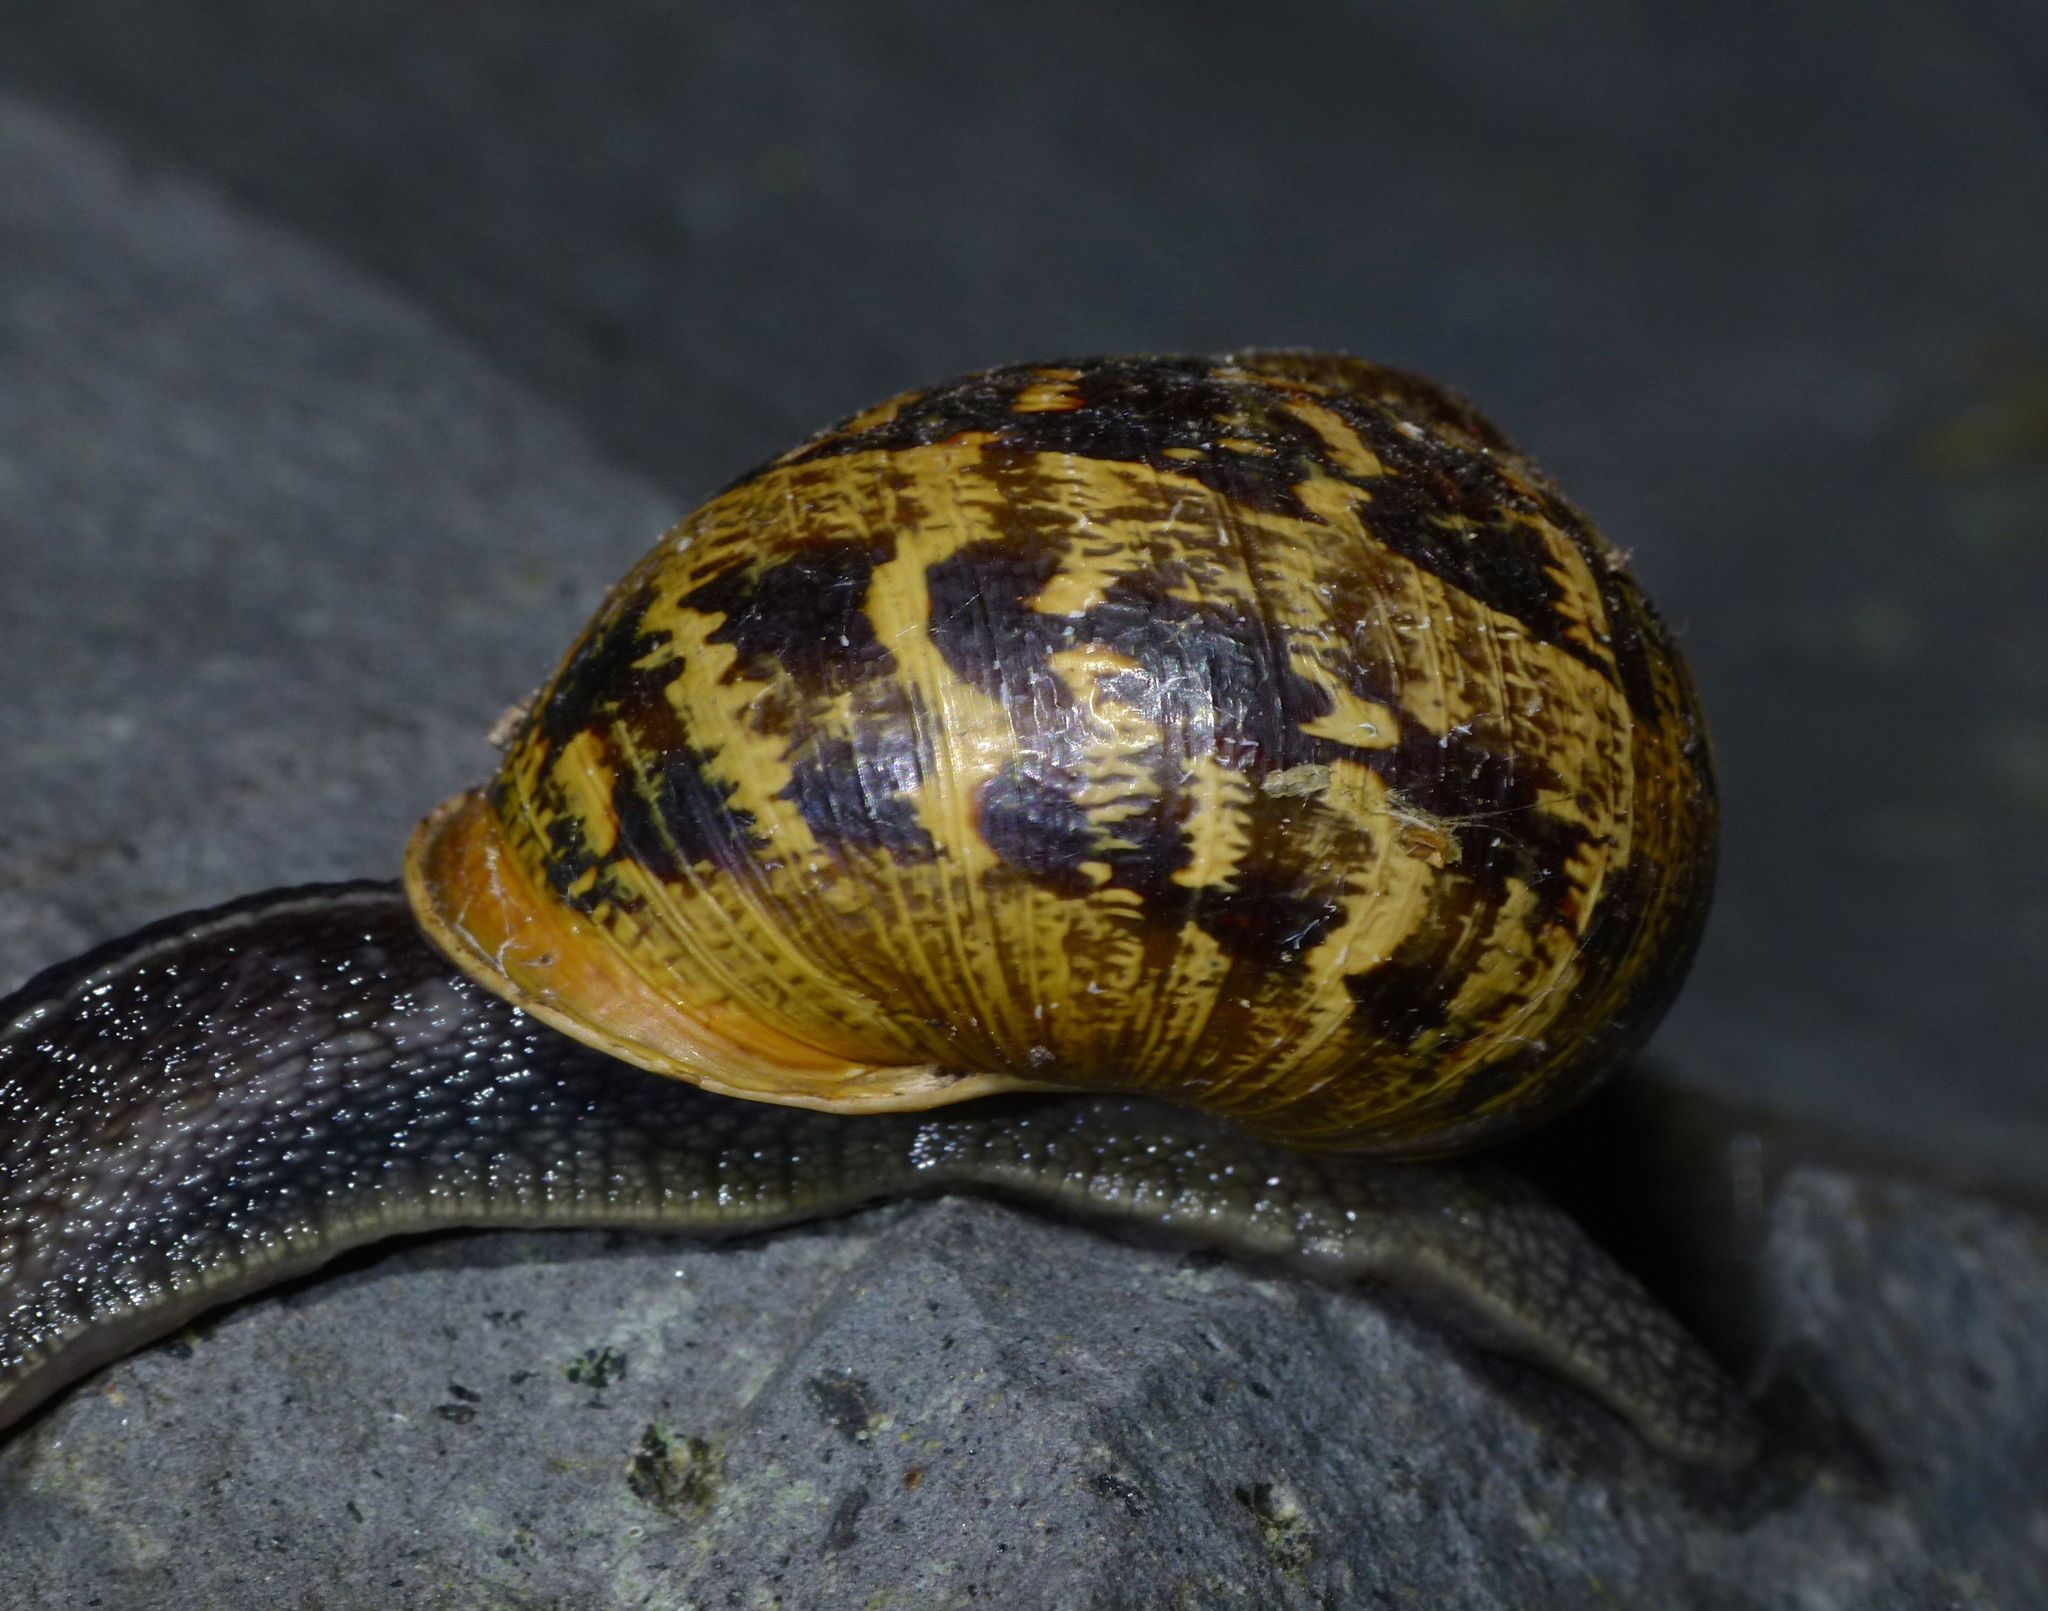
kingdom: Animalia
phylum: Mollusca
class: Gastropoda
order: Stylommatophora
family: Helicidae
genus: Cornu
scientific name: Cornu aspersum
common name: Brown garden snail
